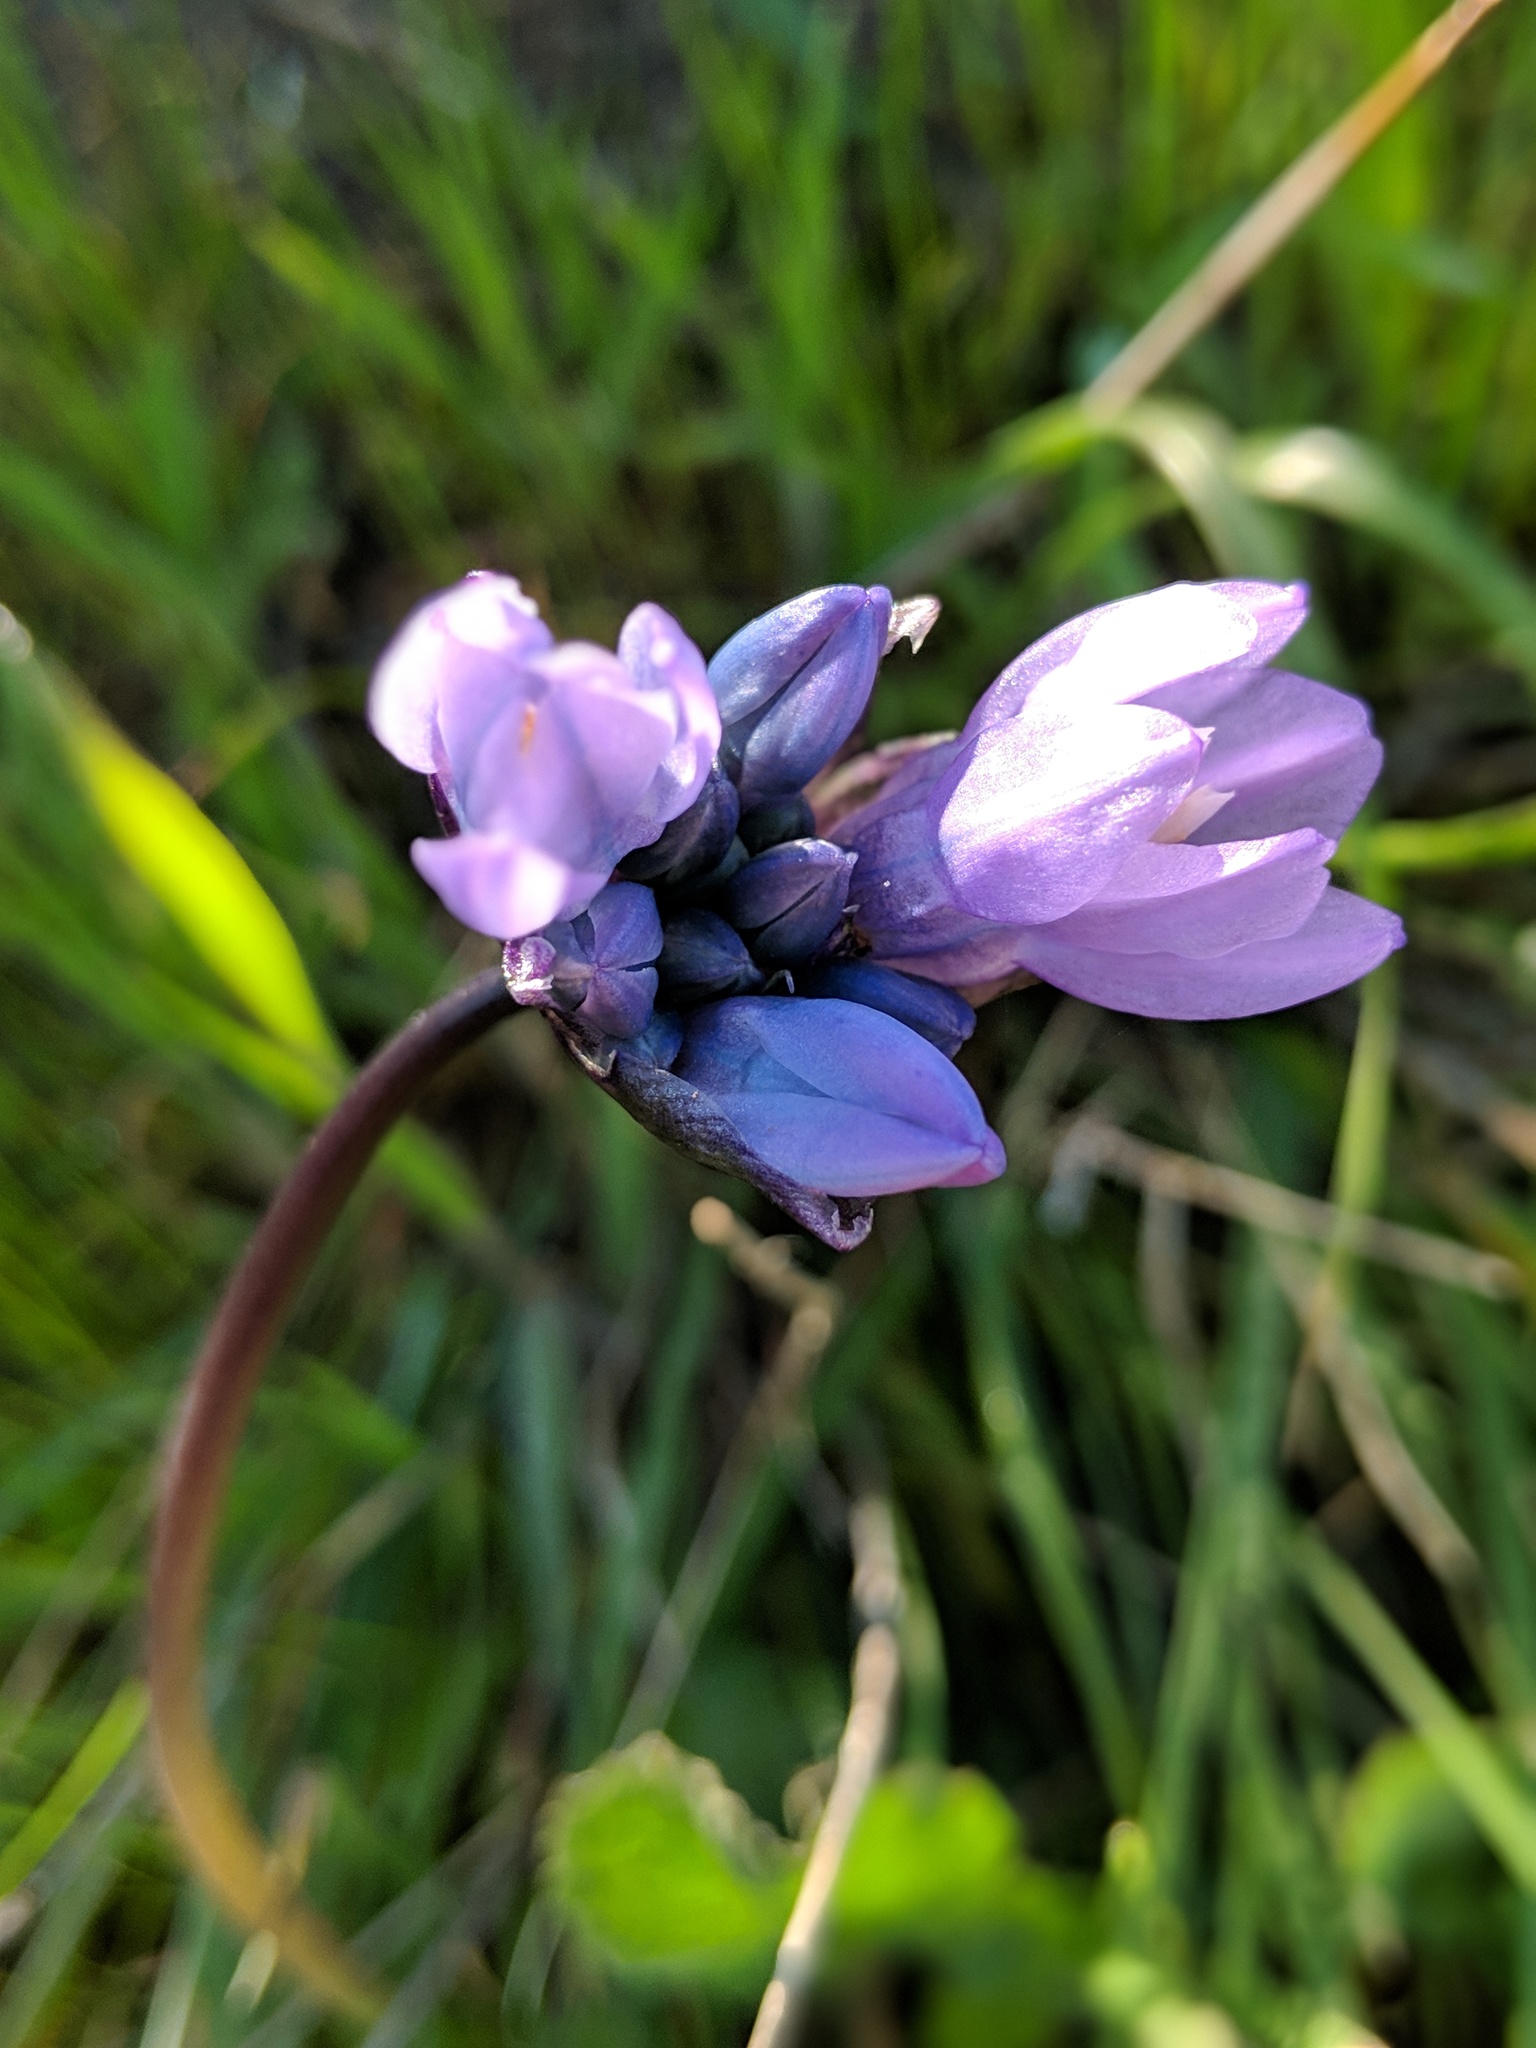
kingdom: Plantae
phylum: Tracheophyta
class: Liliopsida
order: Asparagales
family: Asparagaceae
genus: Dipterostemon
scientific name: Dipterostemon capitatus
